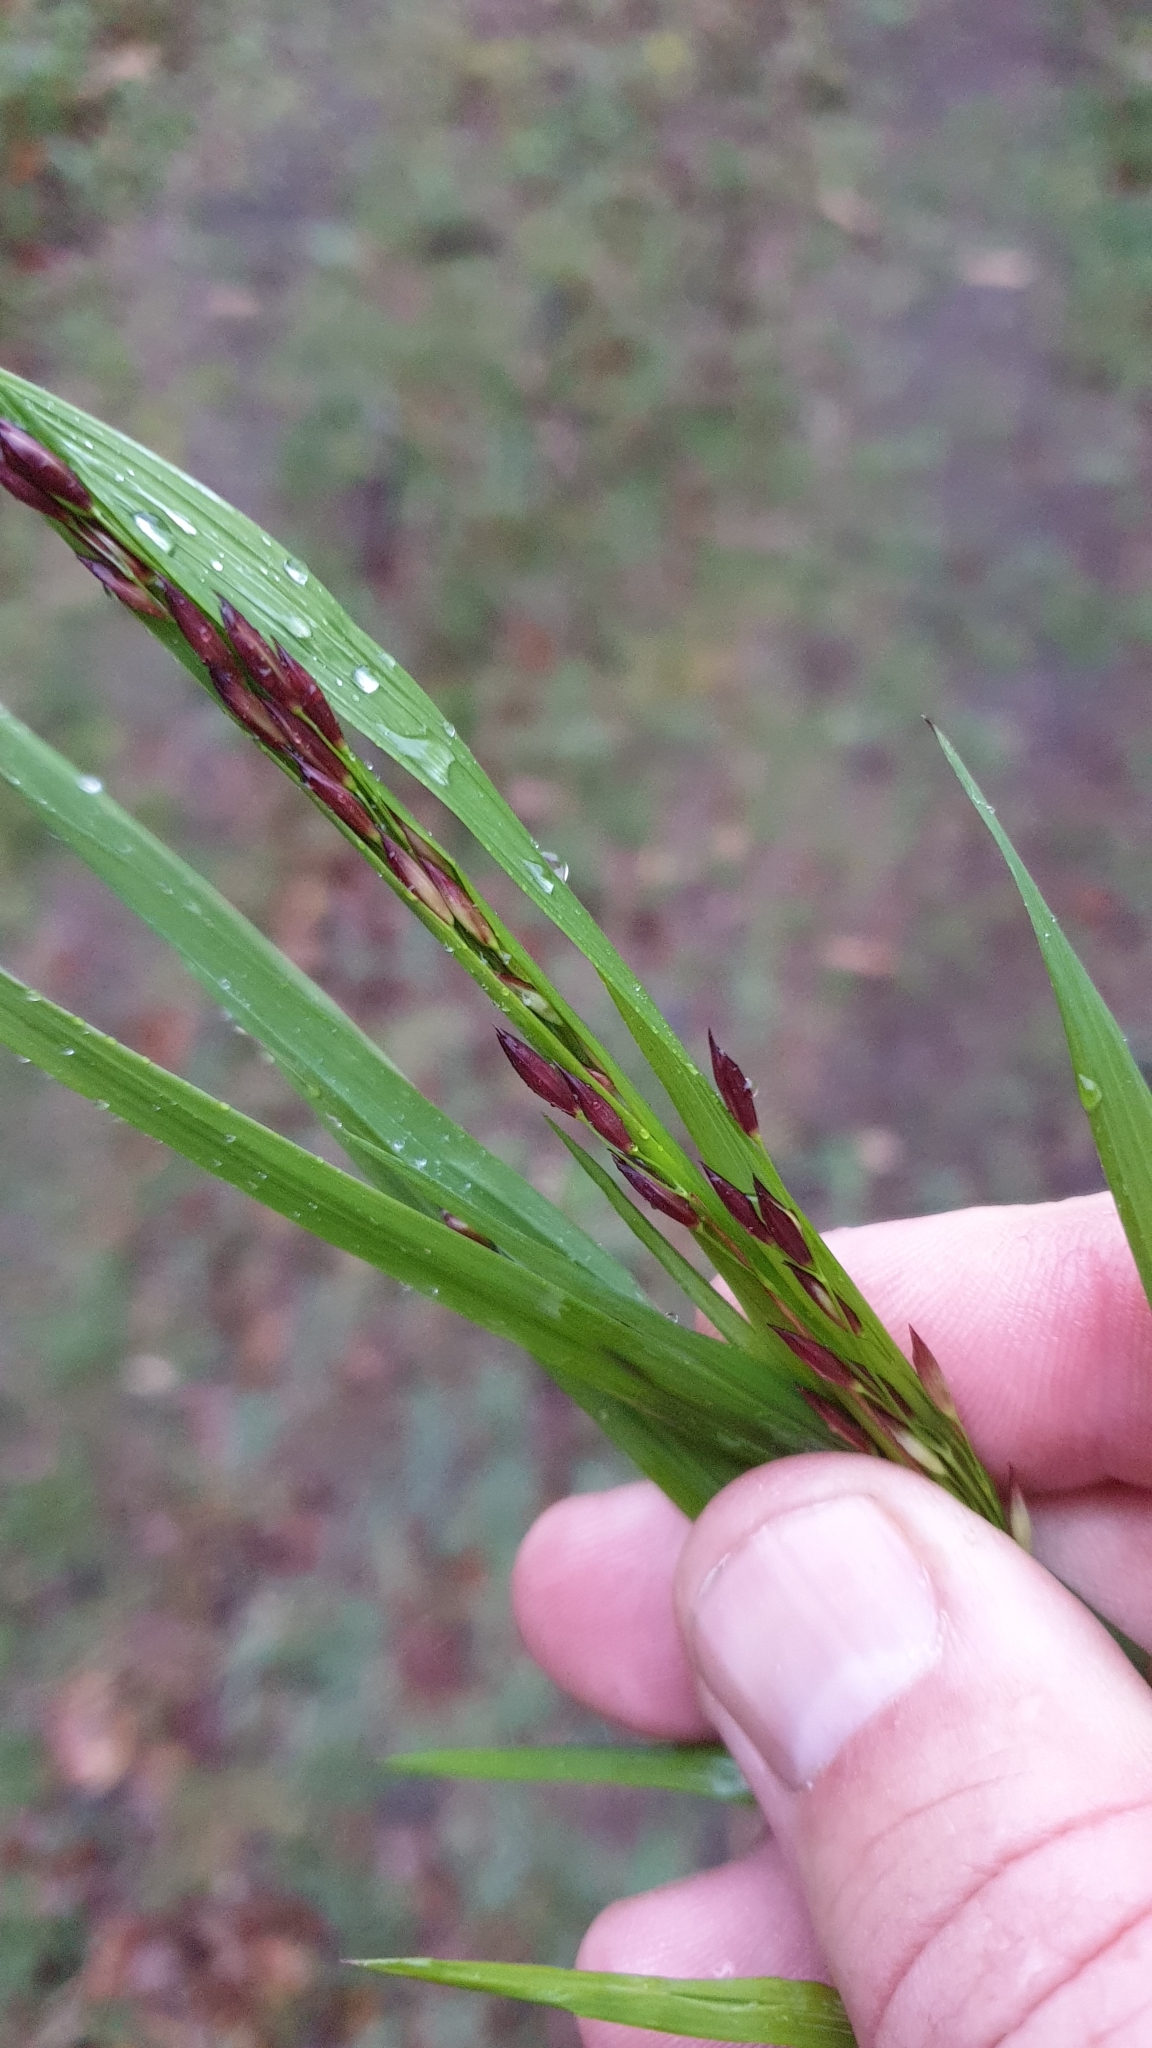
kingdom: Plantae
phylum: Tracheophyta
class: Liliopsida
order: Poales
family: Poaceae
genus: Melica
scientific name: Melica uniflora
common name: Wood melick
